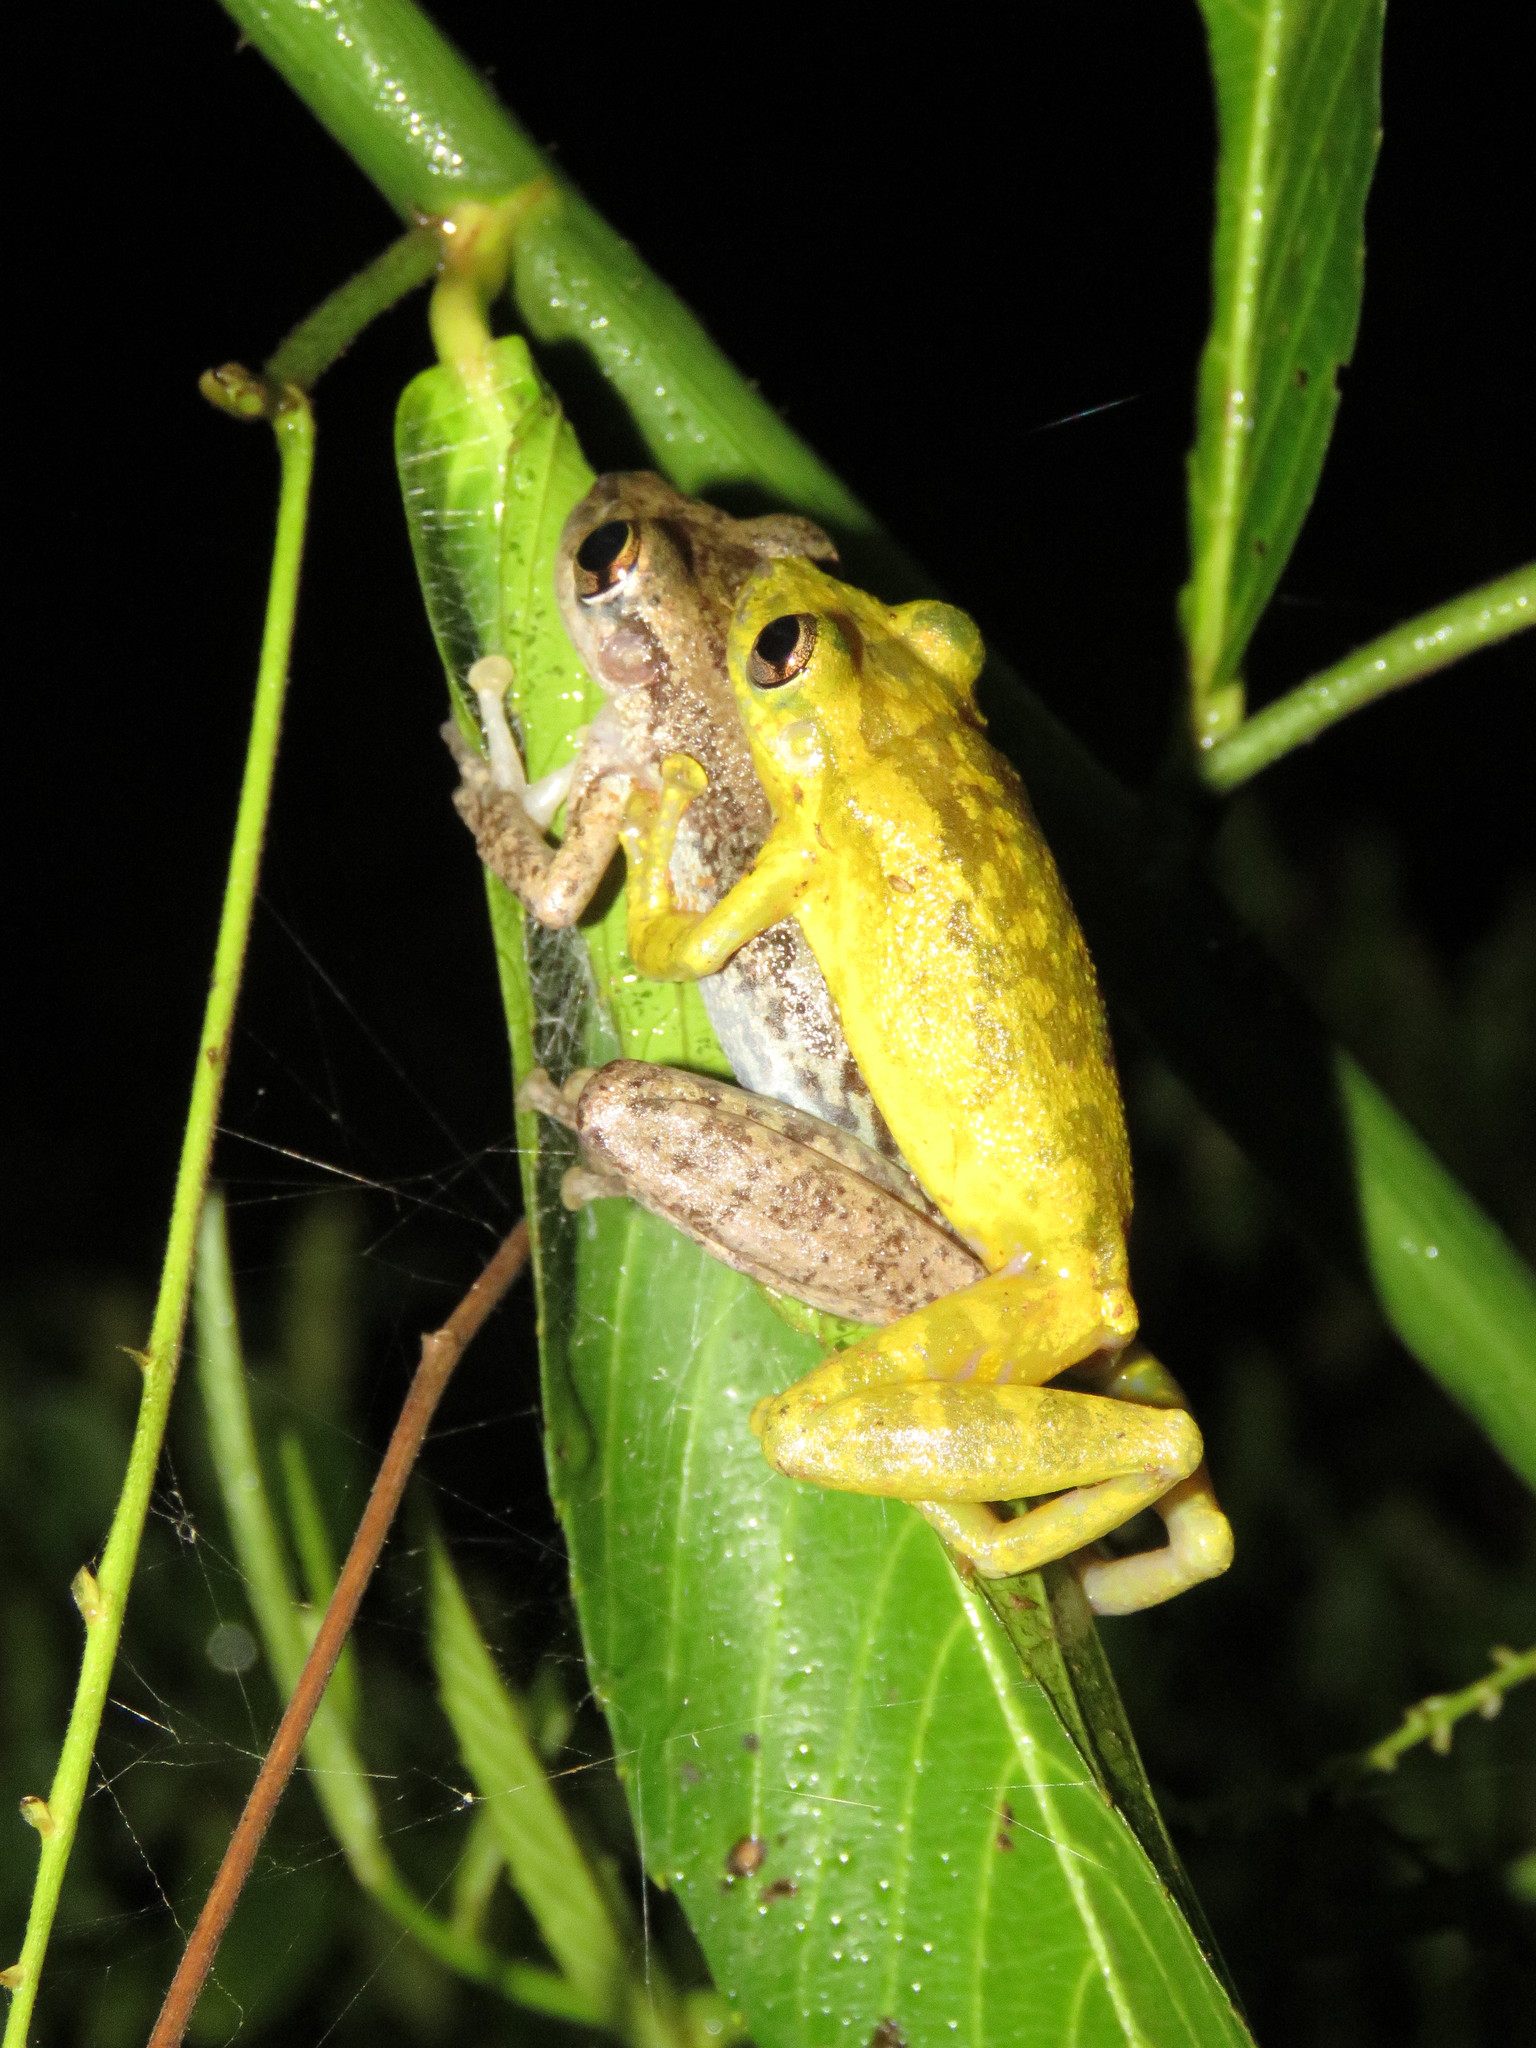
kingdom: Animalia
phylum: Chordata
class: Amphibia
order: Anura
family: Hylidae
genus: Scinax
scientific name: Scinax ruber
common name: Red snouted treefrog
